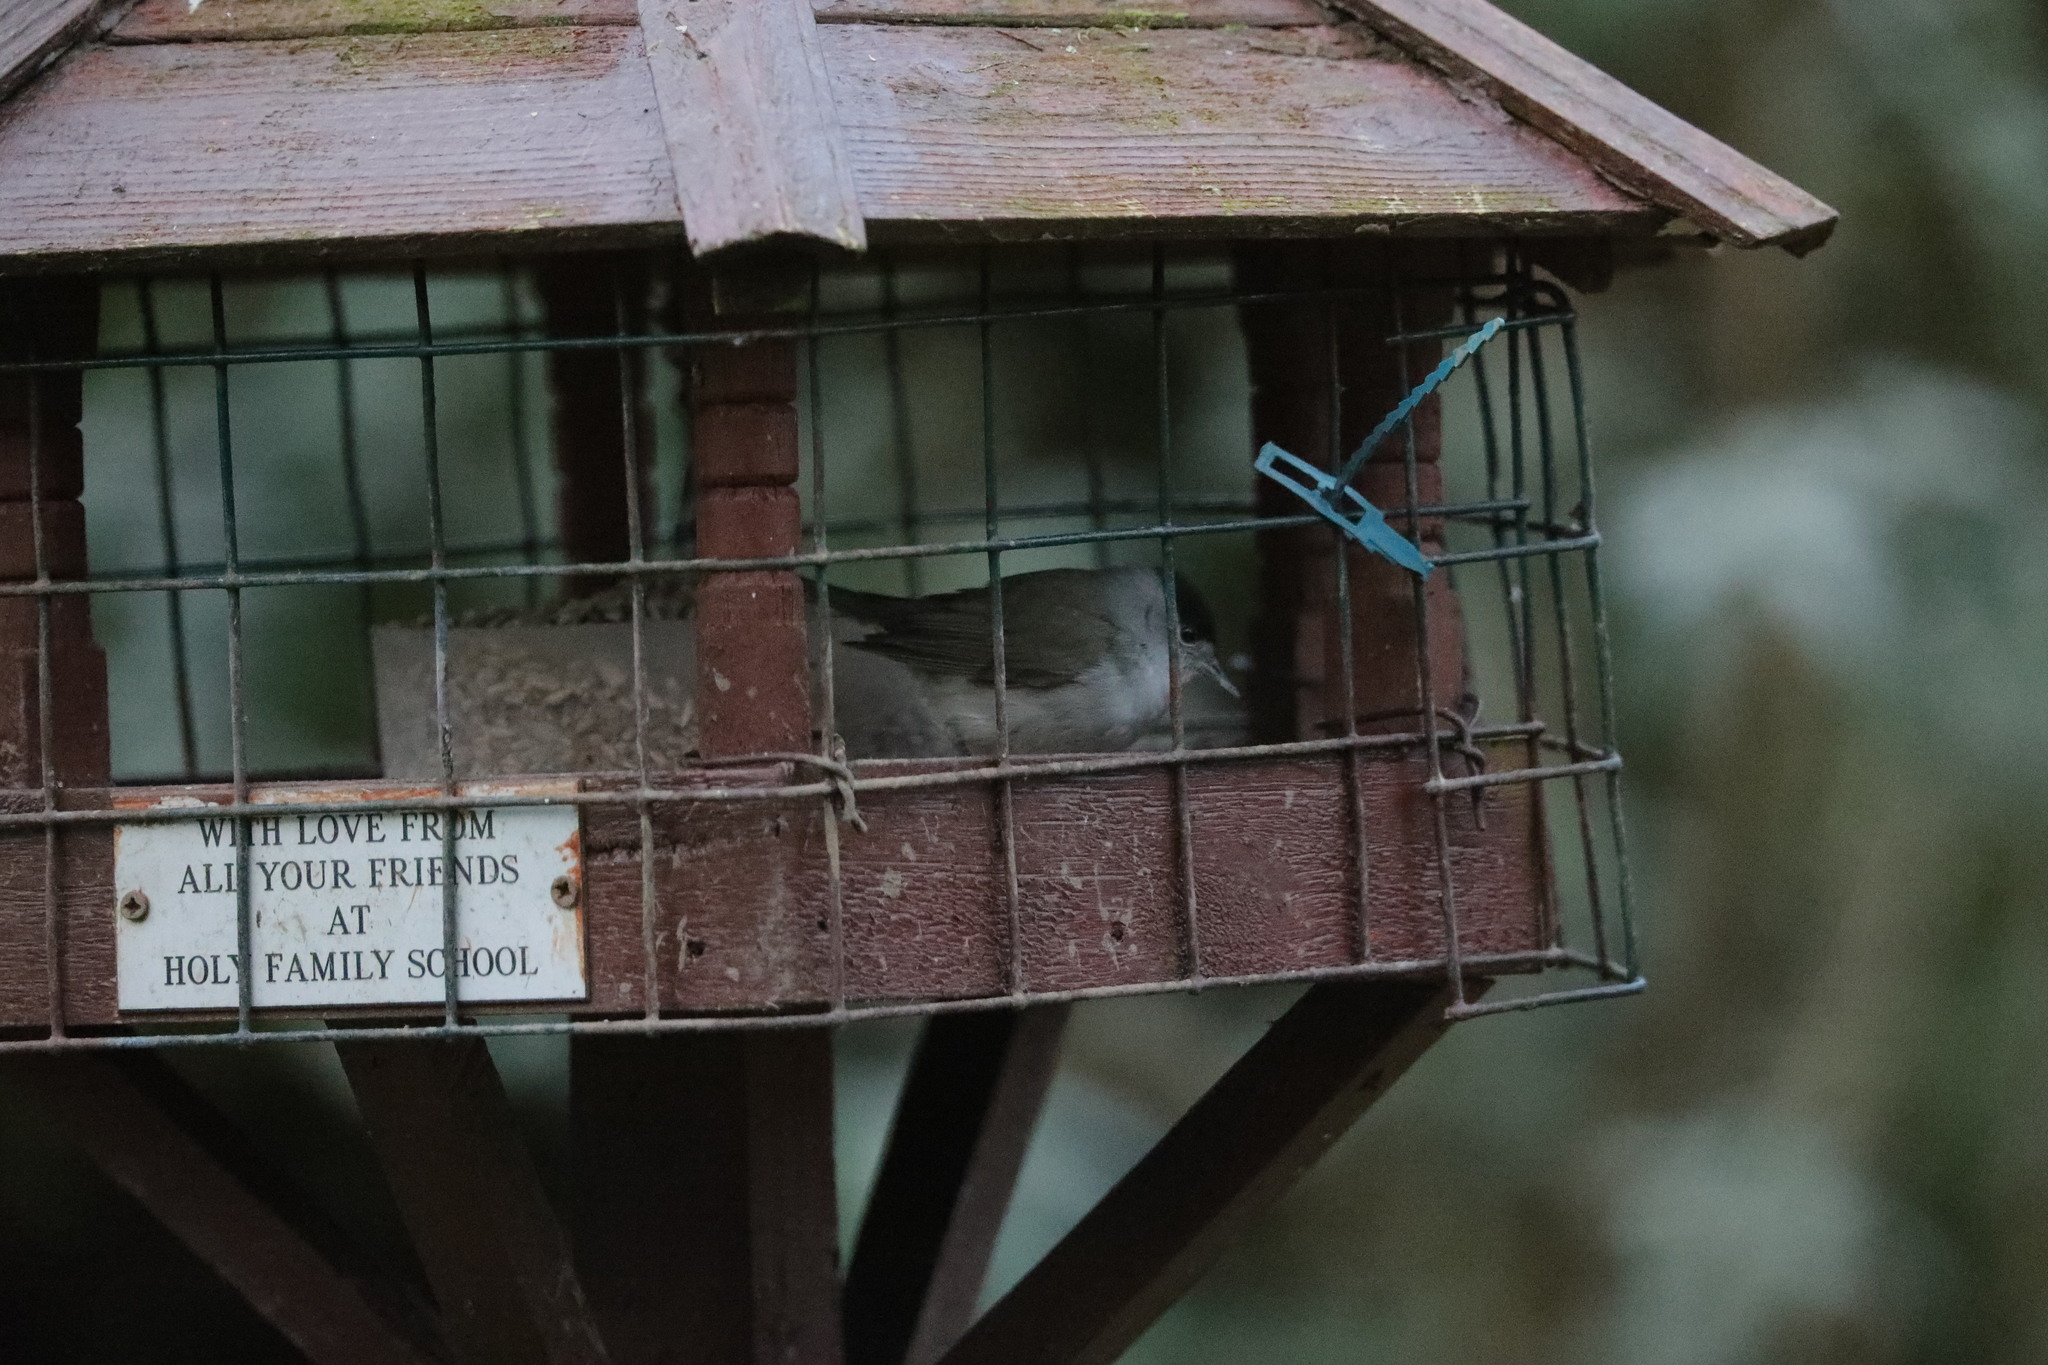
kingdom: Animalia
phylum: Chordata
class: Aves
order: Passeriformes
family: Sylviidae
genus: Sylvia
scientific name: Sylvia atricapilla
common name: Eurasian blackcap
